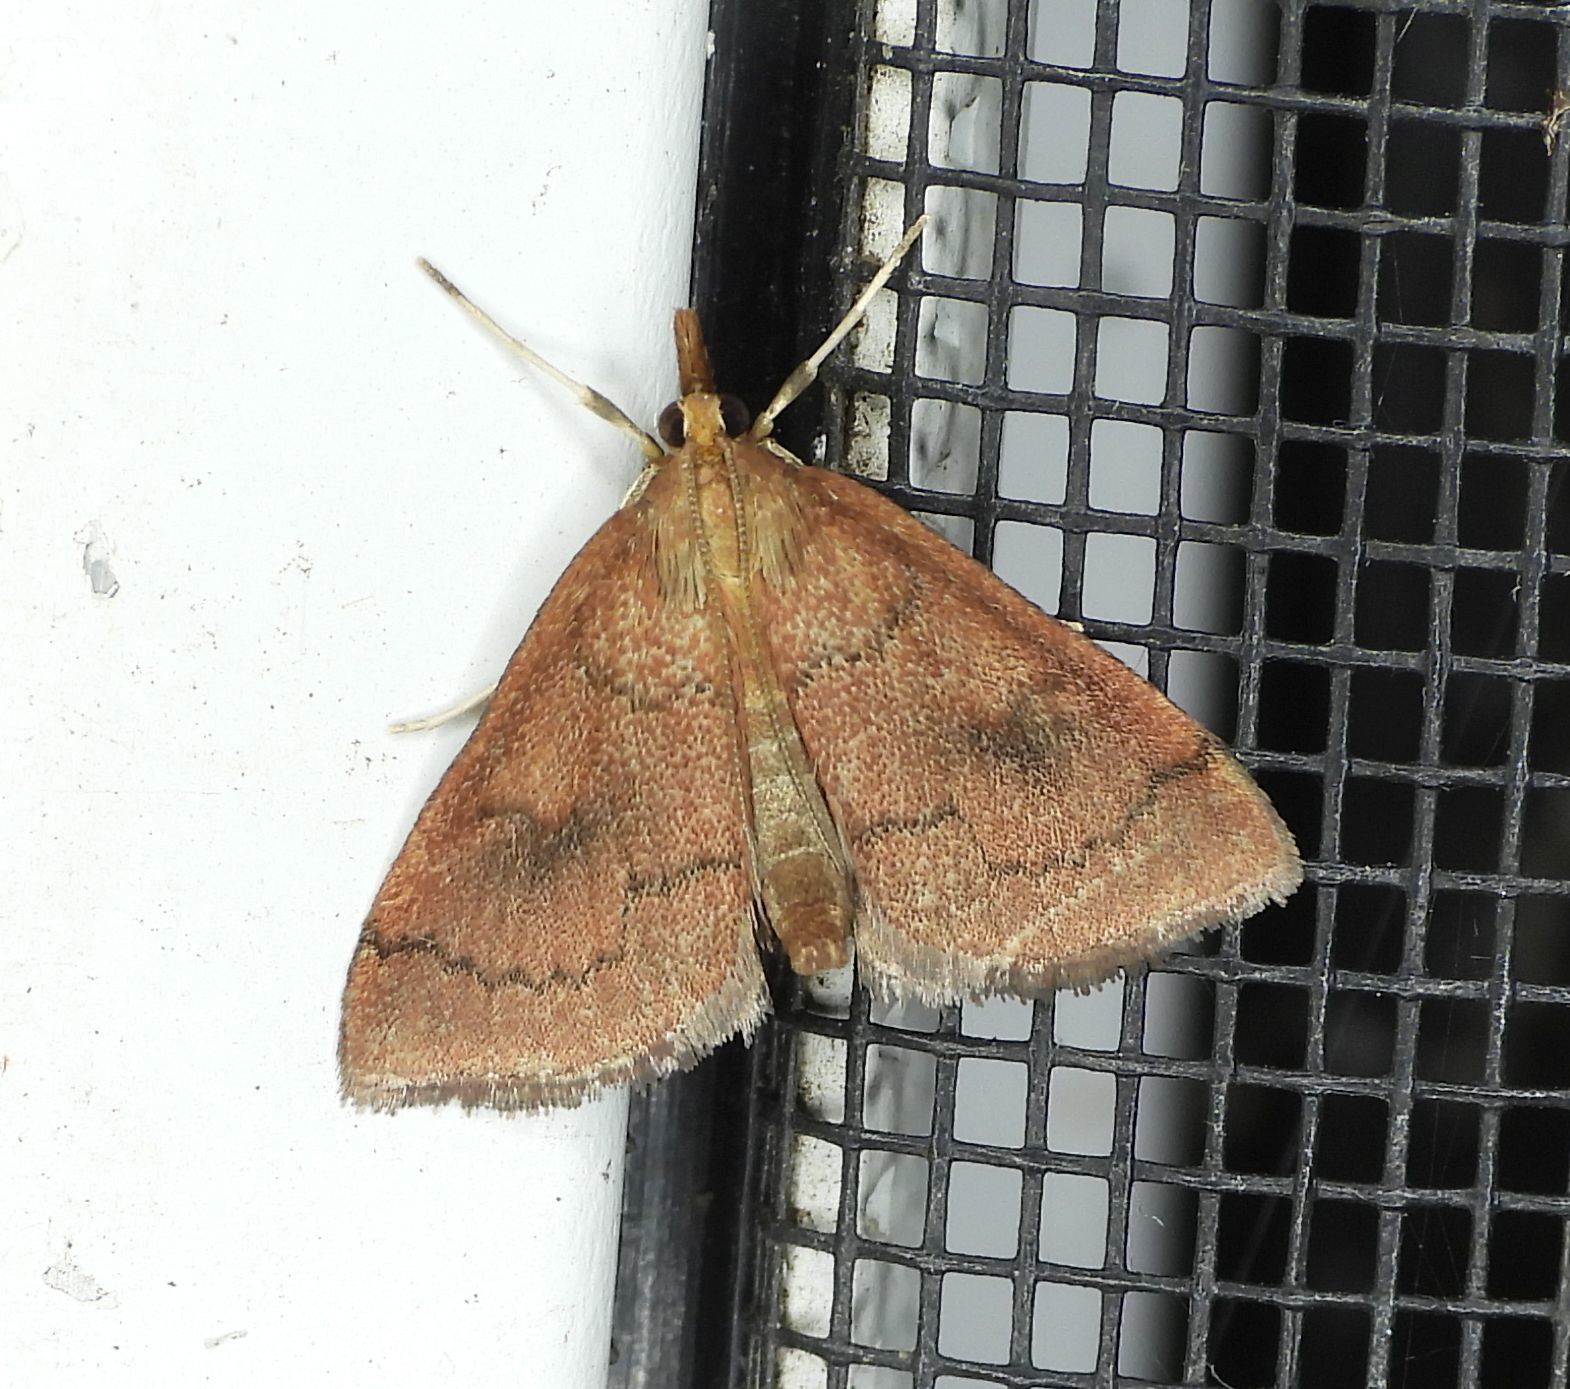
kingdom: Animalia
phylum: Arthropoda
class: Insecta
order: Lepidoptera
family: Crambidae
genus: Fumibotys
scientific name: Fumibotys fumalis
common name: Mint root borer moth
